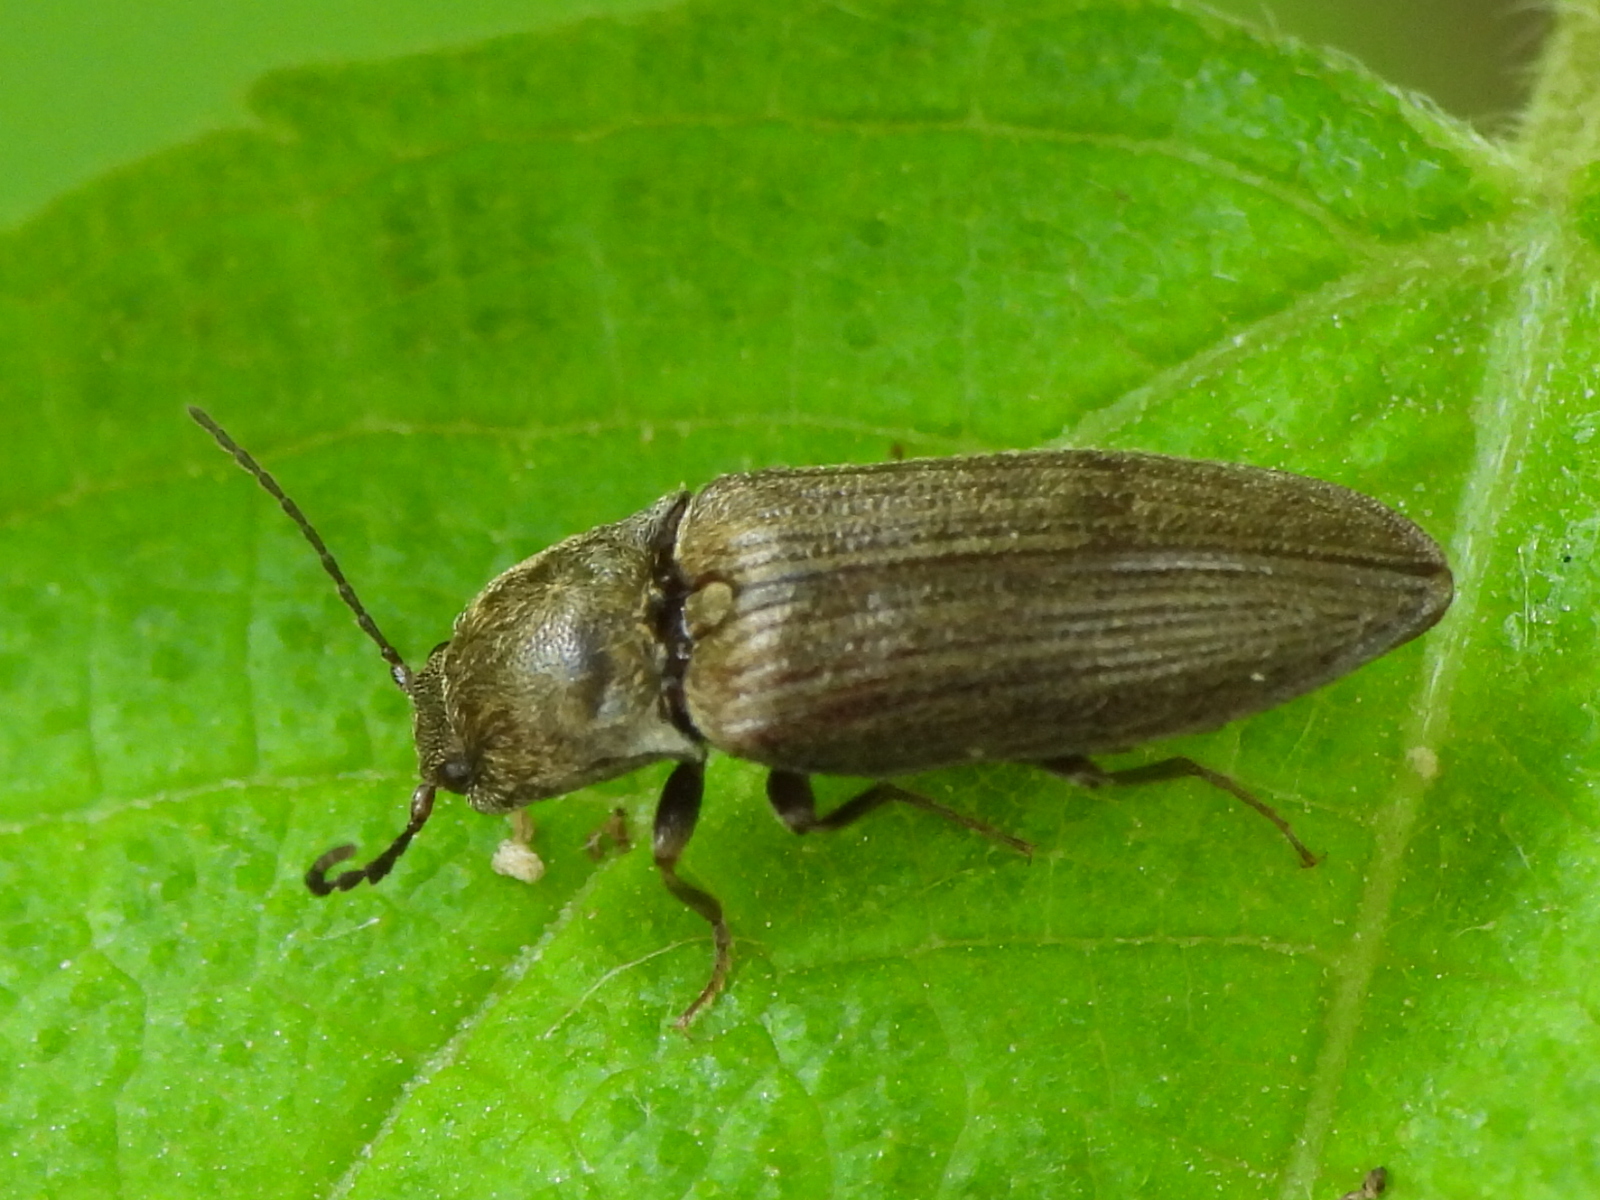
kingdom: Animalia
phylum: Arthropoda
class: Insecta
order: Coleoptera
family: Elateridae
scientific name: Elateridae
